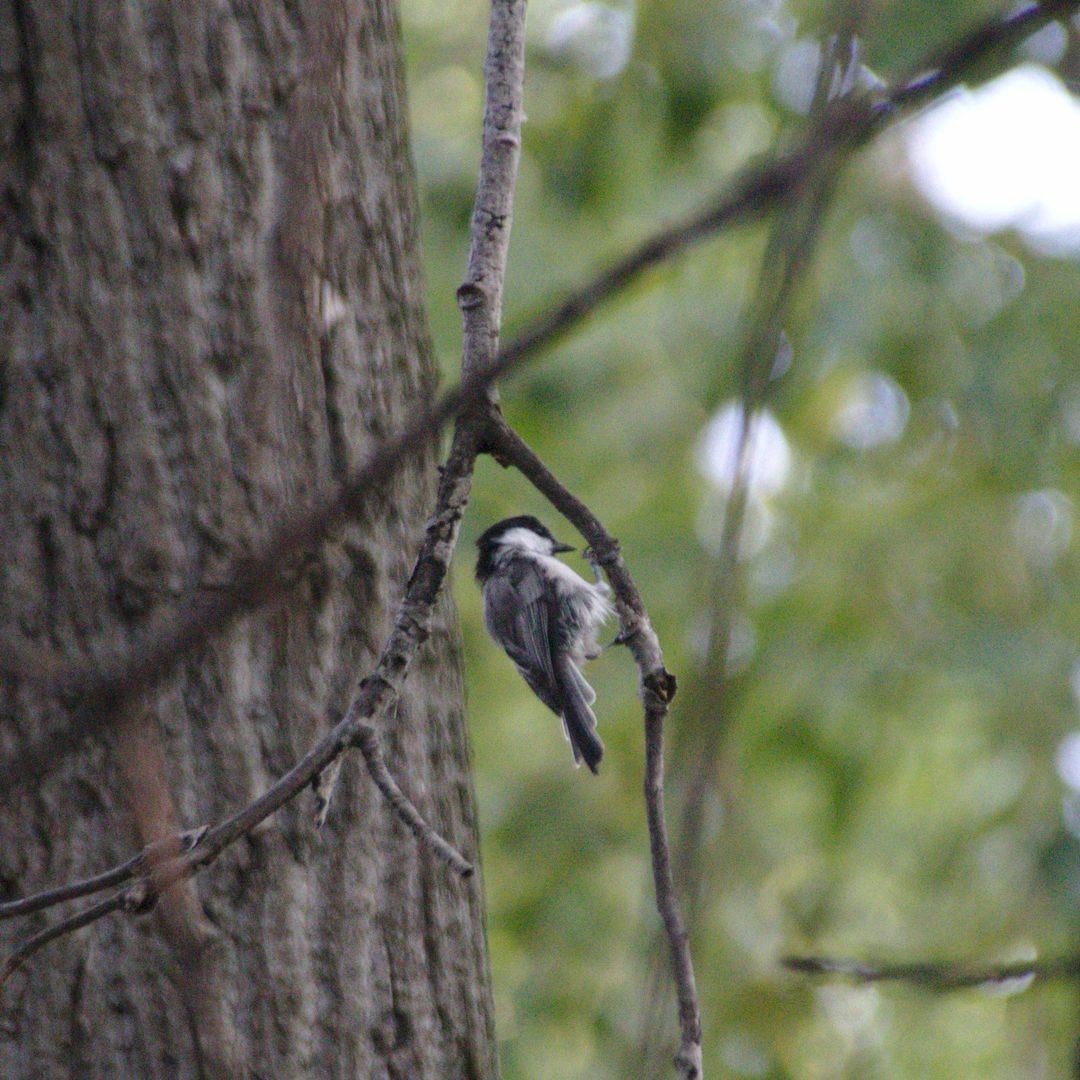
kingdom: Animalia
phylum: Chordata
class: Aves
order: Passeriformes
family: Paridae
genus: Poecile
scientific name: Poecile montanus
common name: Willow tit
